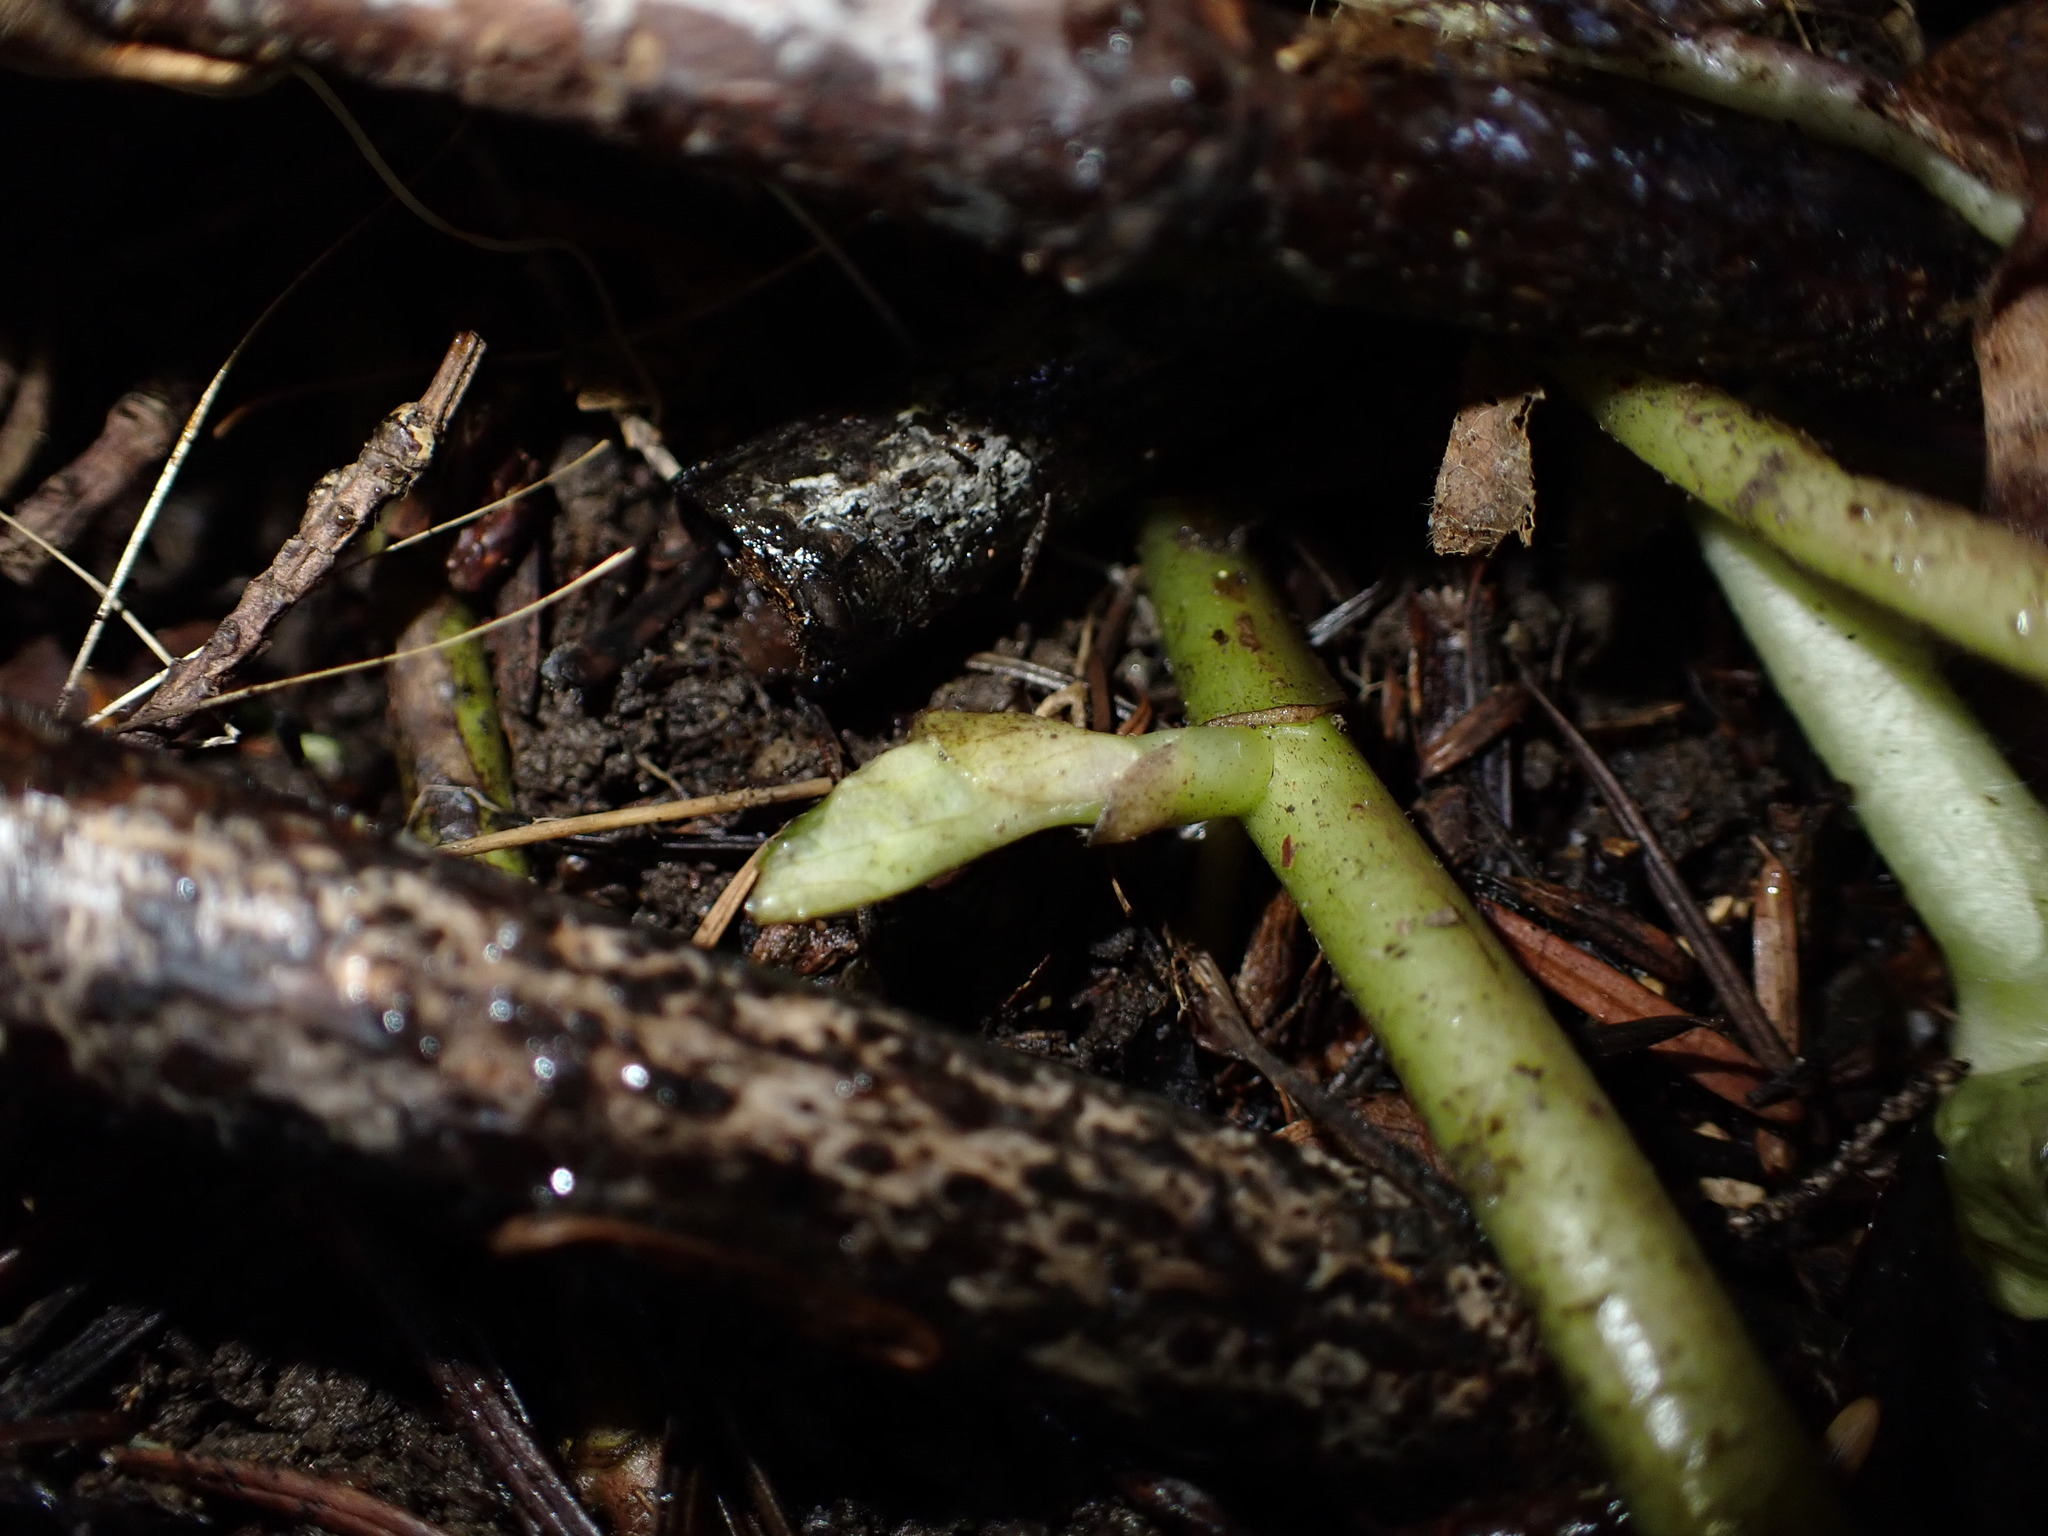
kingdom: Plantae
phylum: Tracheophyta
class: Magnoliopsida
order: Piperales
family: Aristolochiaceae
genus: Asarum
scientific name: Asarum caudatum
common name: Wild ginger
